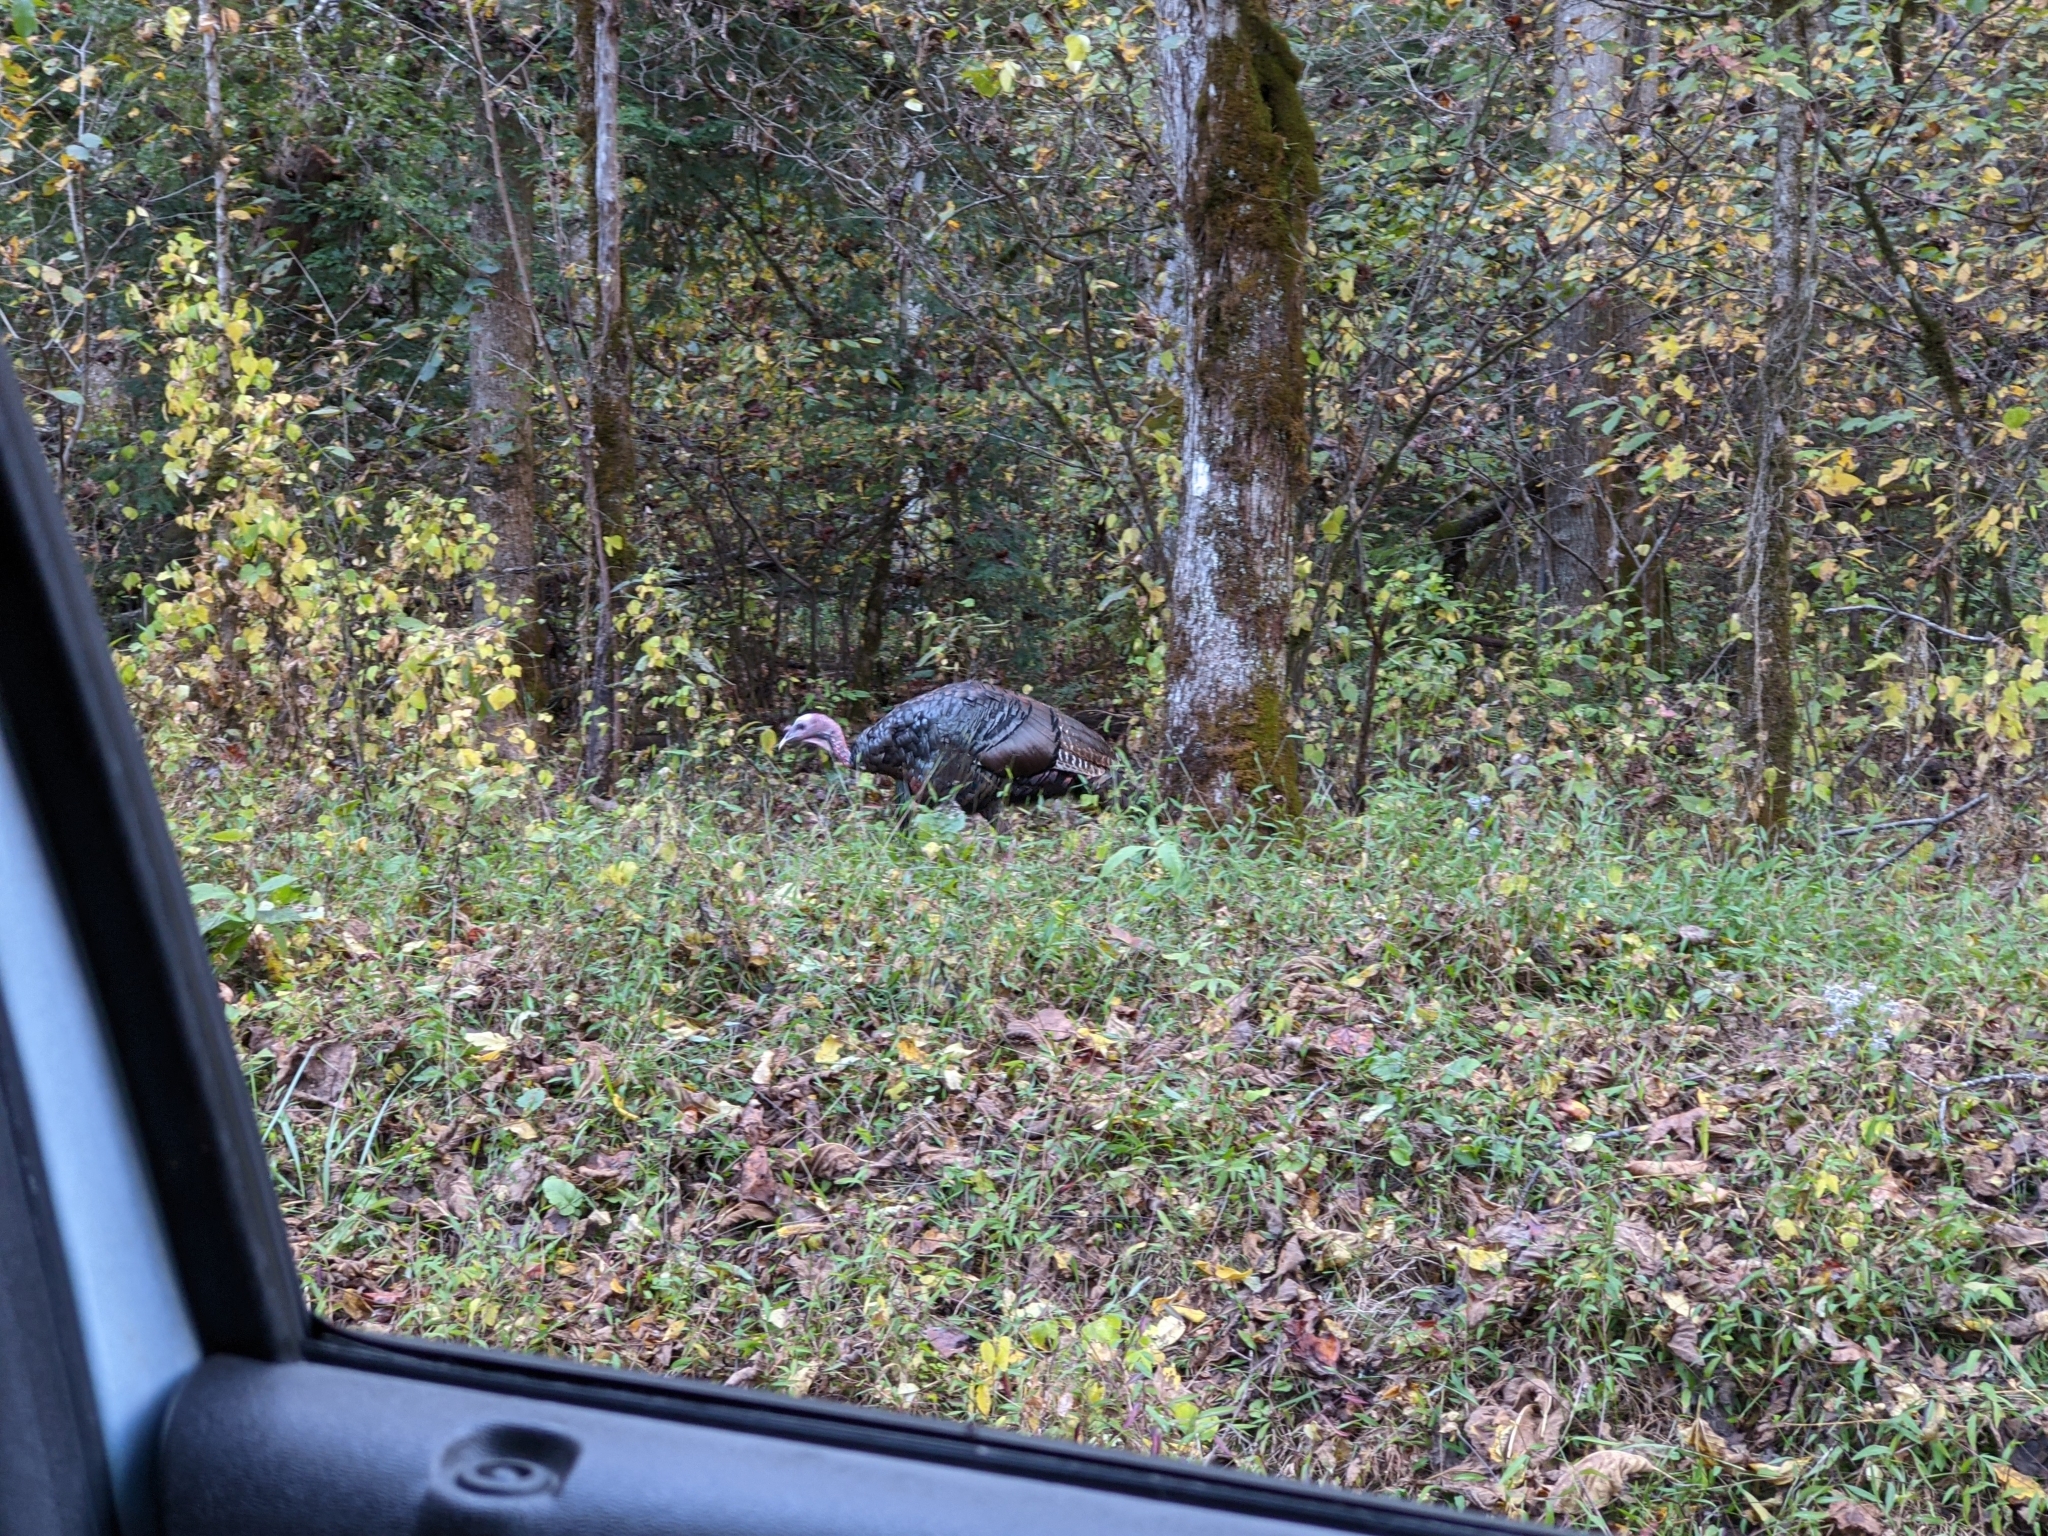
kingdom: Animalia
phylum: Chordata
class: Aves
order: Galliformes
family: Phasianidae
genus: Meleagris
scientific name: Meleagris gallopavo
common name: Wild turkey
